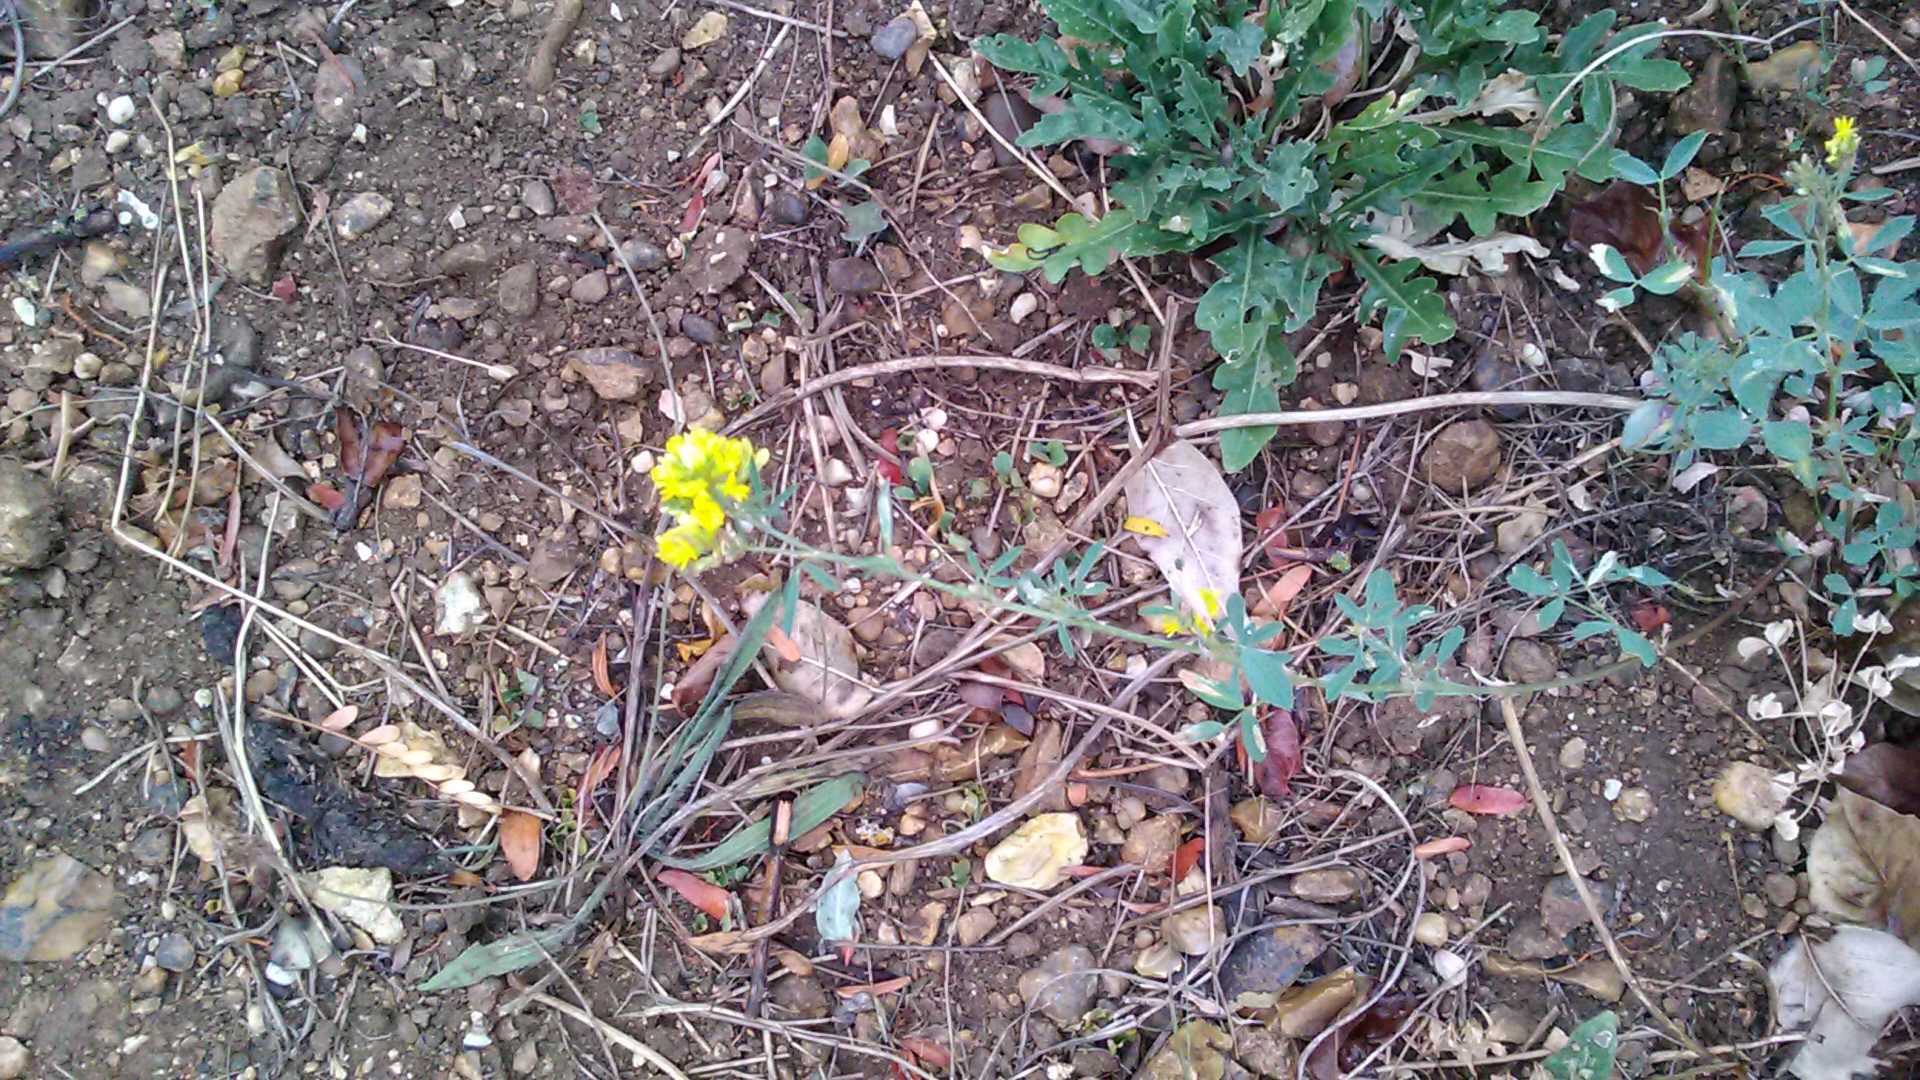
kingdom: Plantae
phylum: Tracheophyta
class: Magnoliopsida
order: Fabales
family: Fabaceae
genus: Medicago
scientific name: Medicago falcata
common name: Sickle medick
